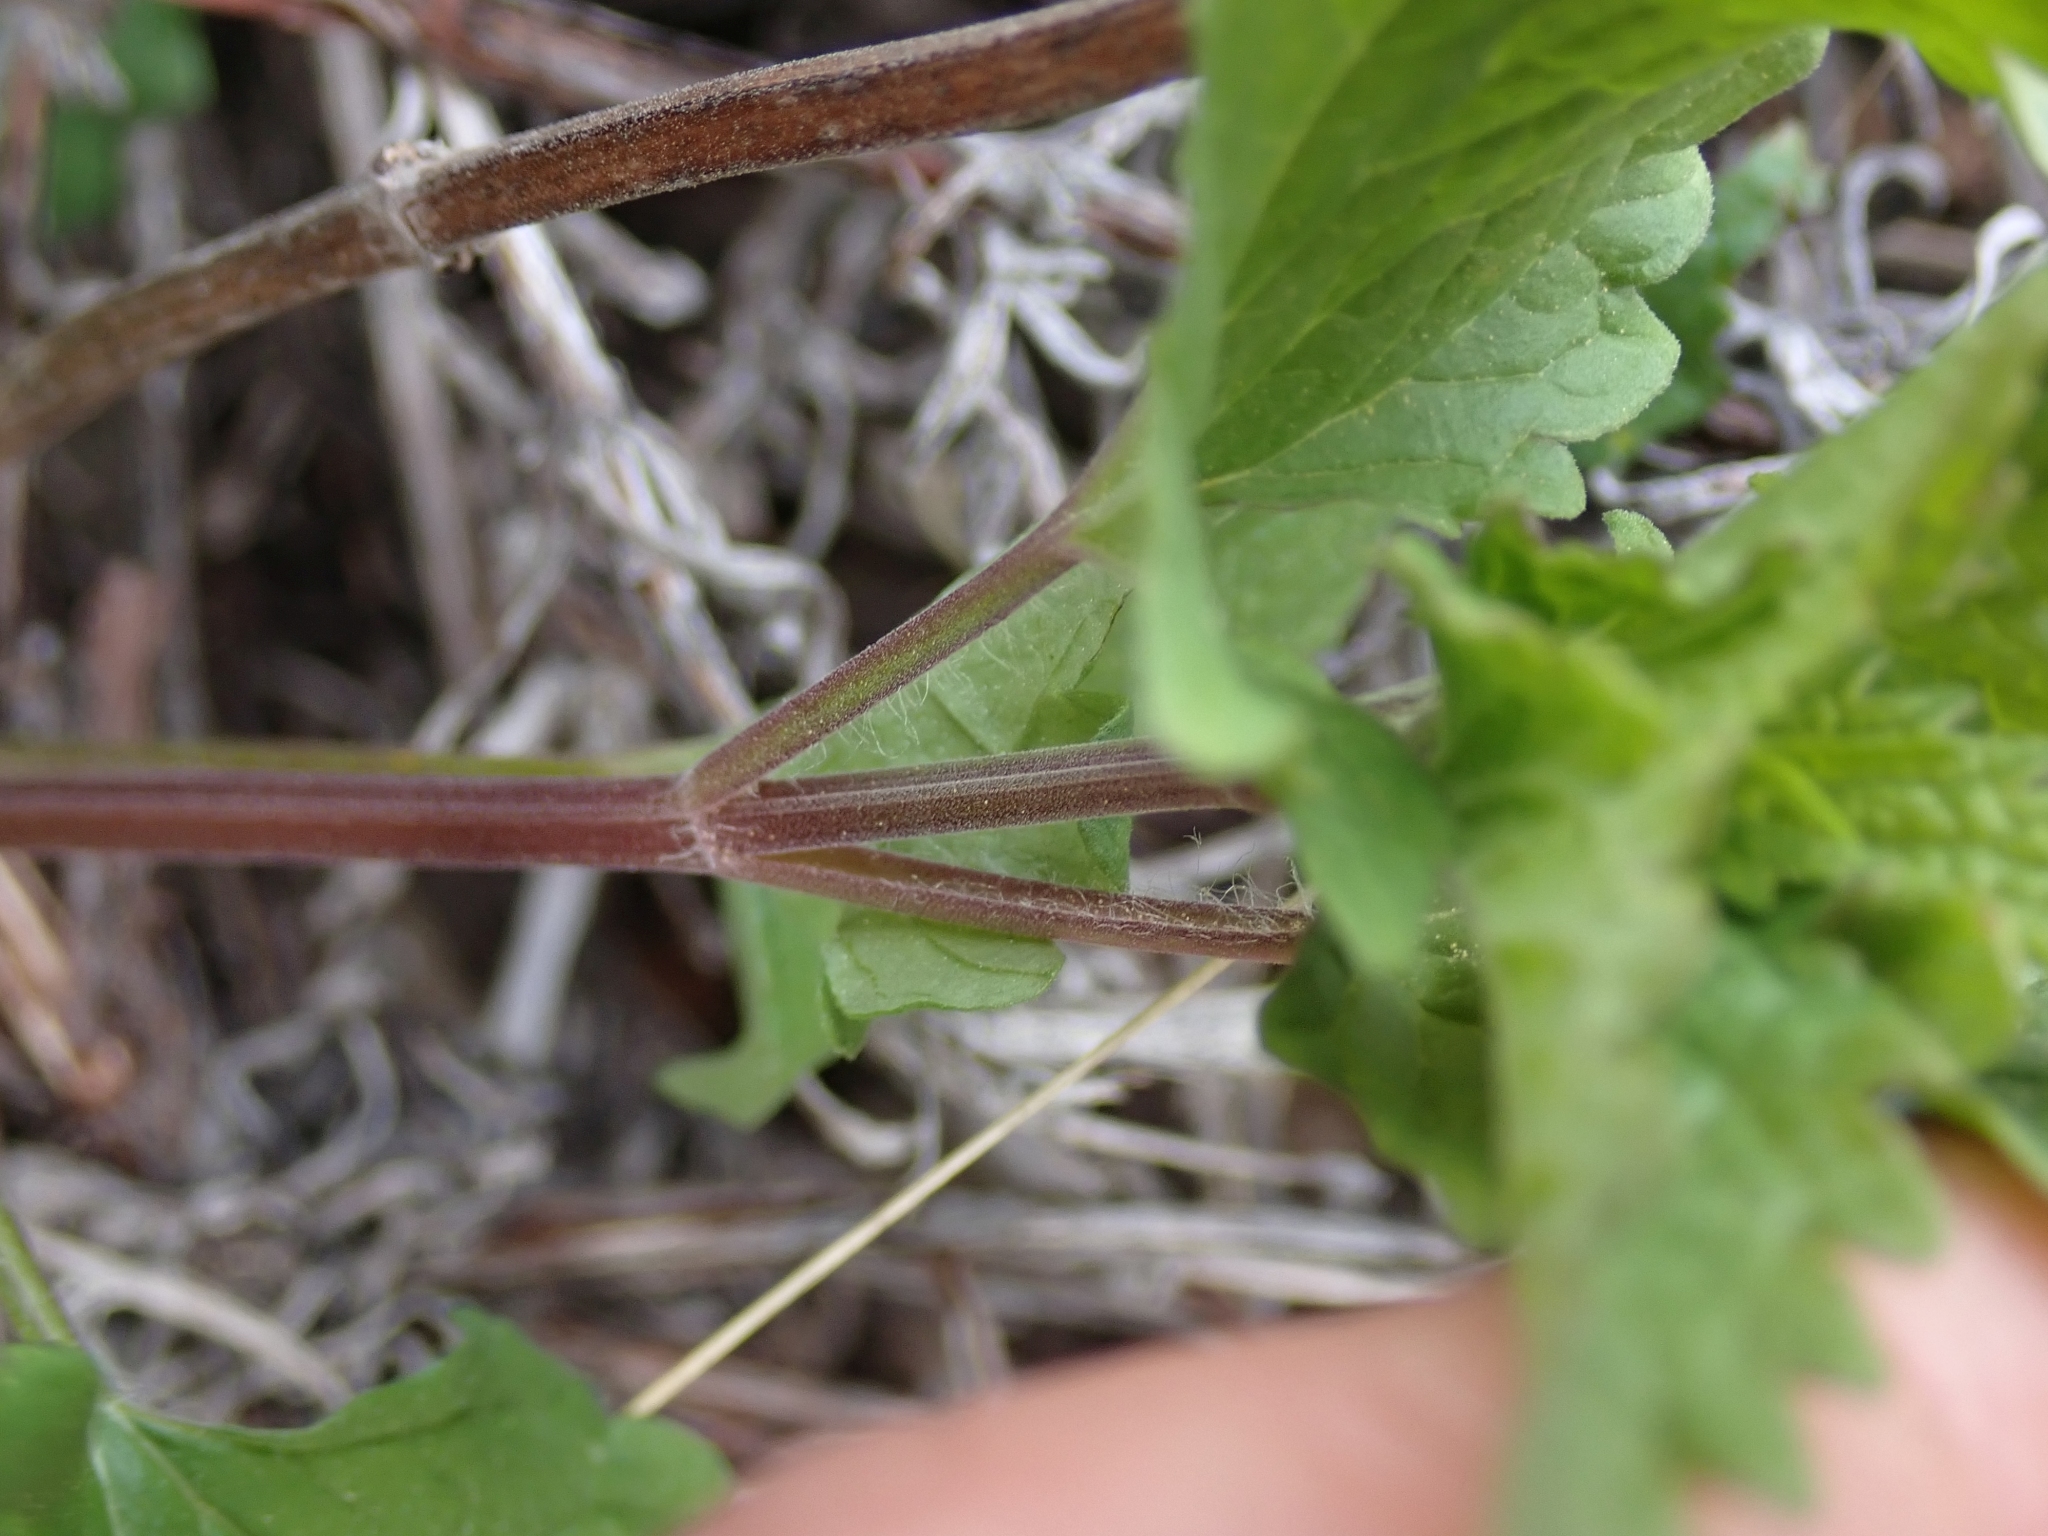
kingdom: Plantae
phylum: Tracheophyta
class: Magnoliopsida
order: Lamiales
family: Lamiaceae
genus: Agastache
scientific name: Agastache urticifolia
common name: Horsemint giant hyssop
